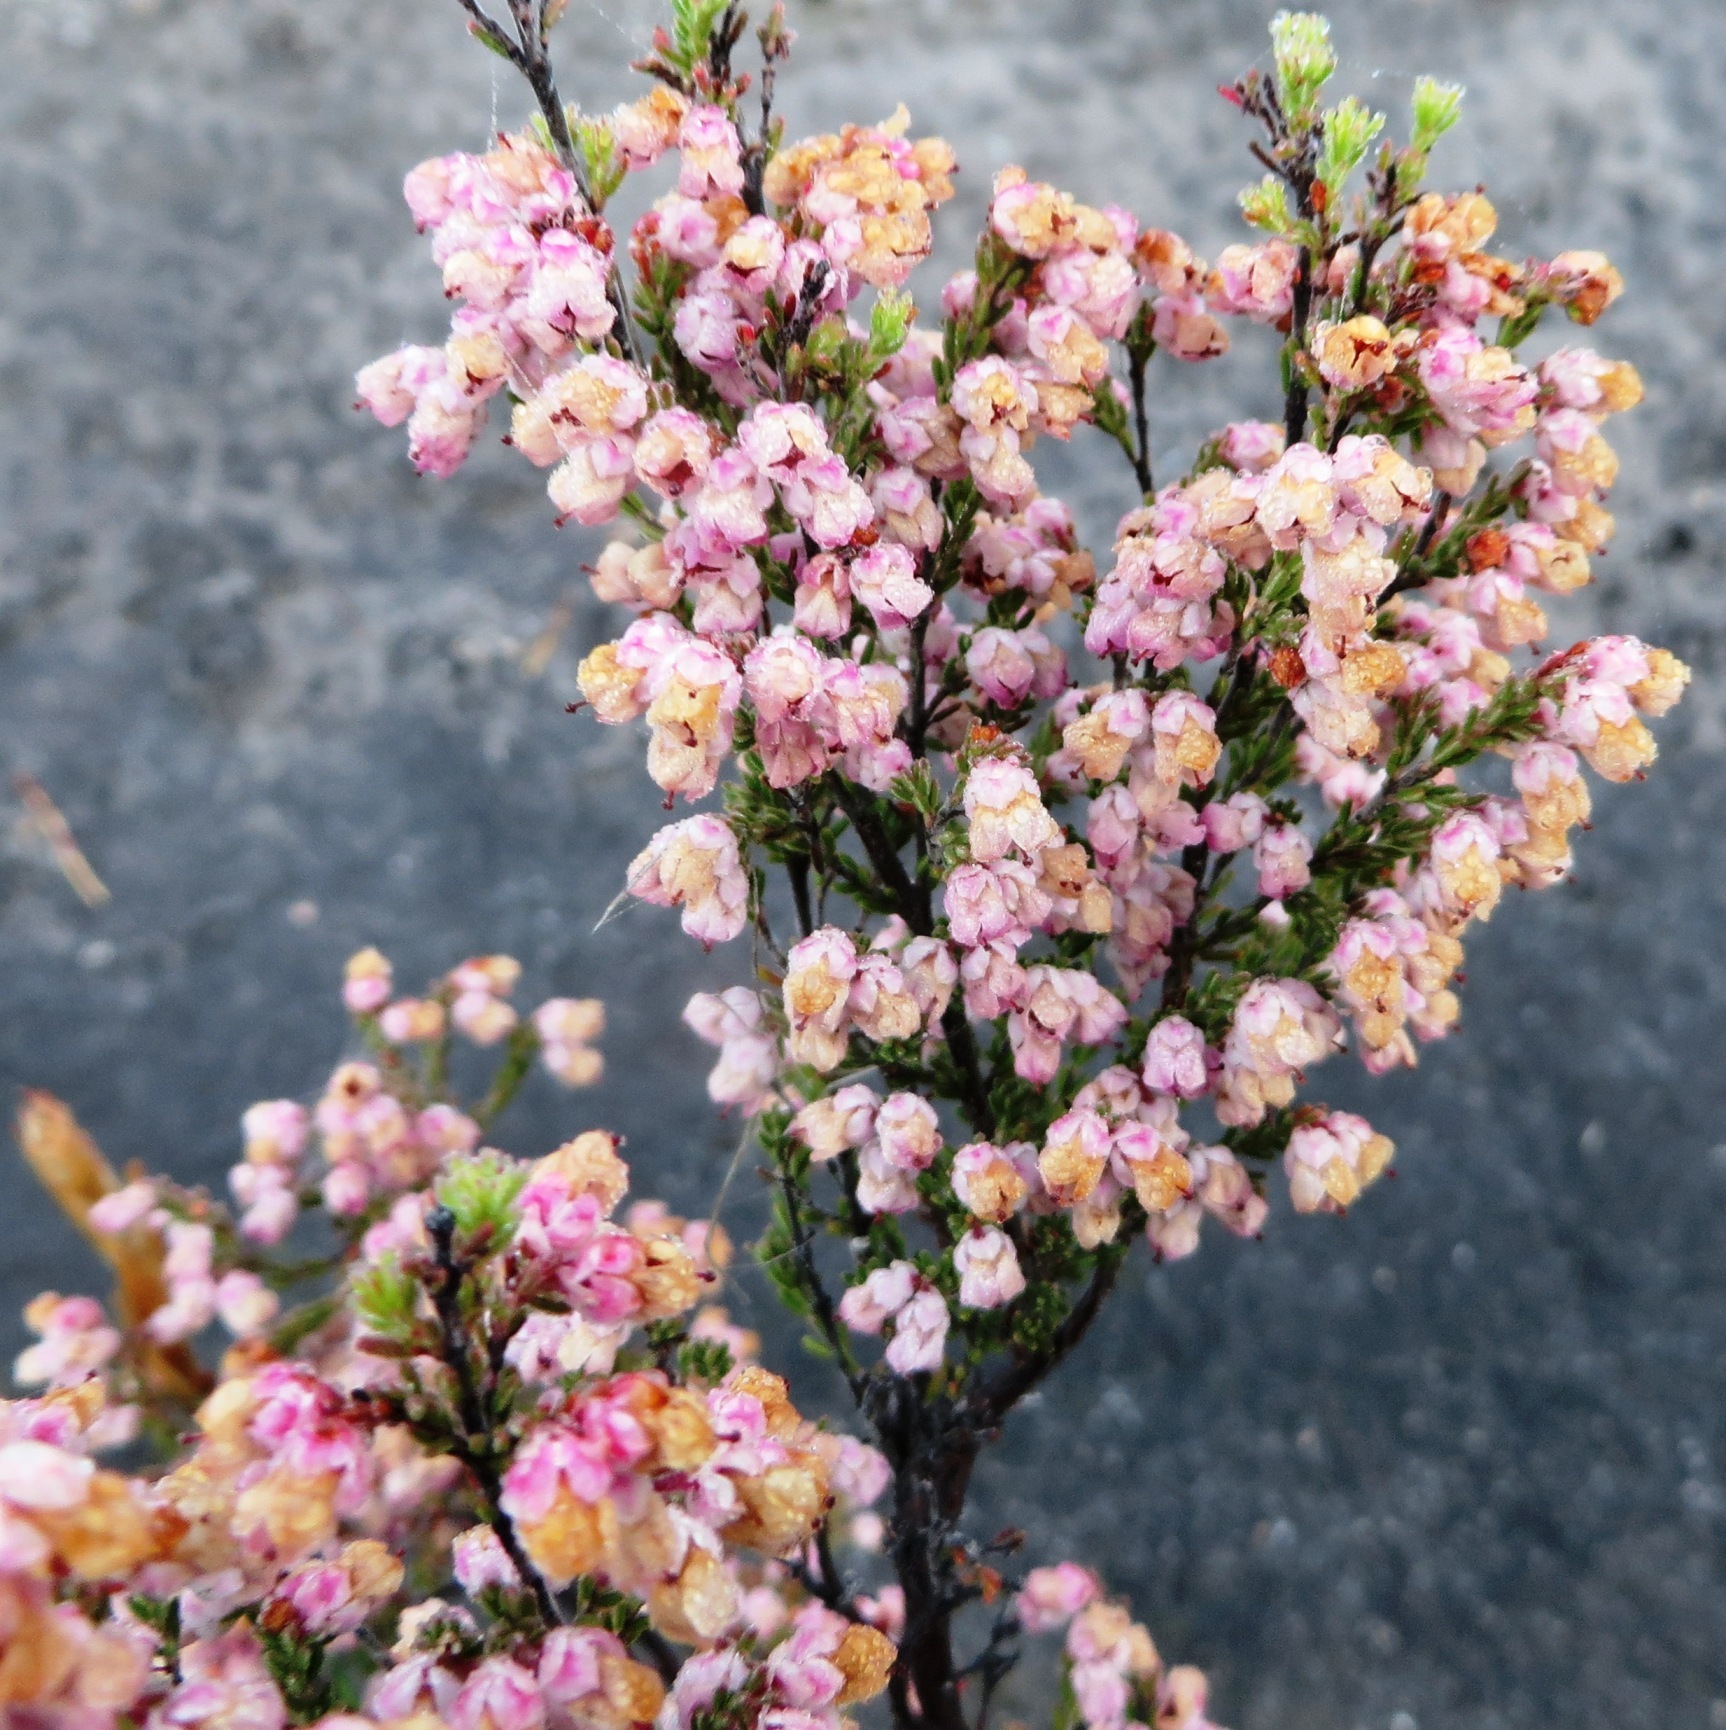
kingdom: Plantae
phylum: Tracheophyta
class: Magnoliopsida
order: Ericales
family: Ericaceae
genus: Erica
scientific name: Erica cristiflora
